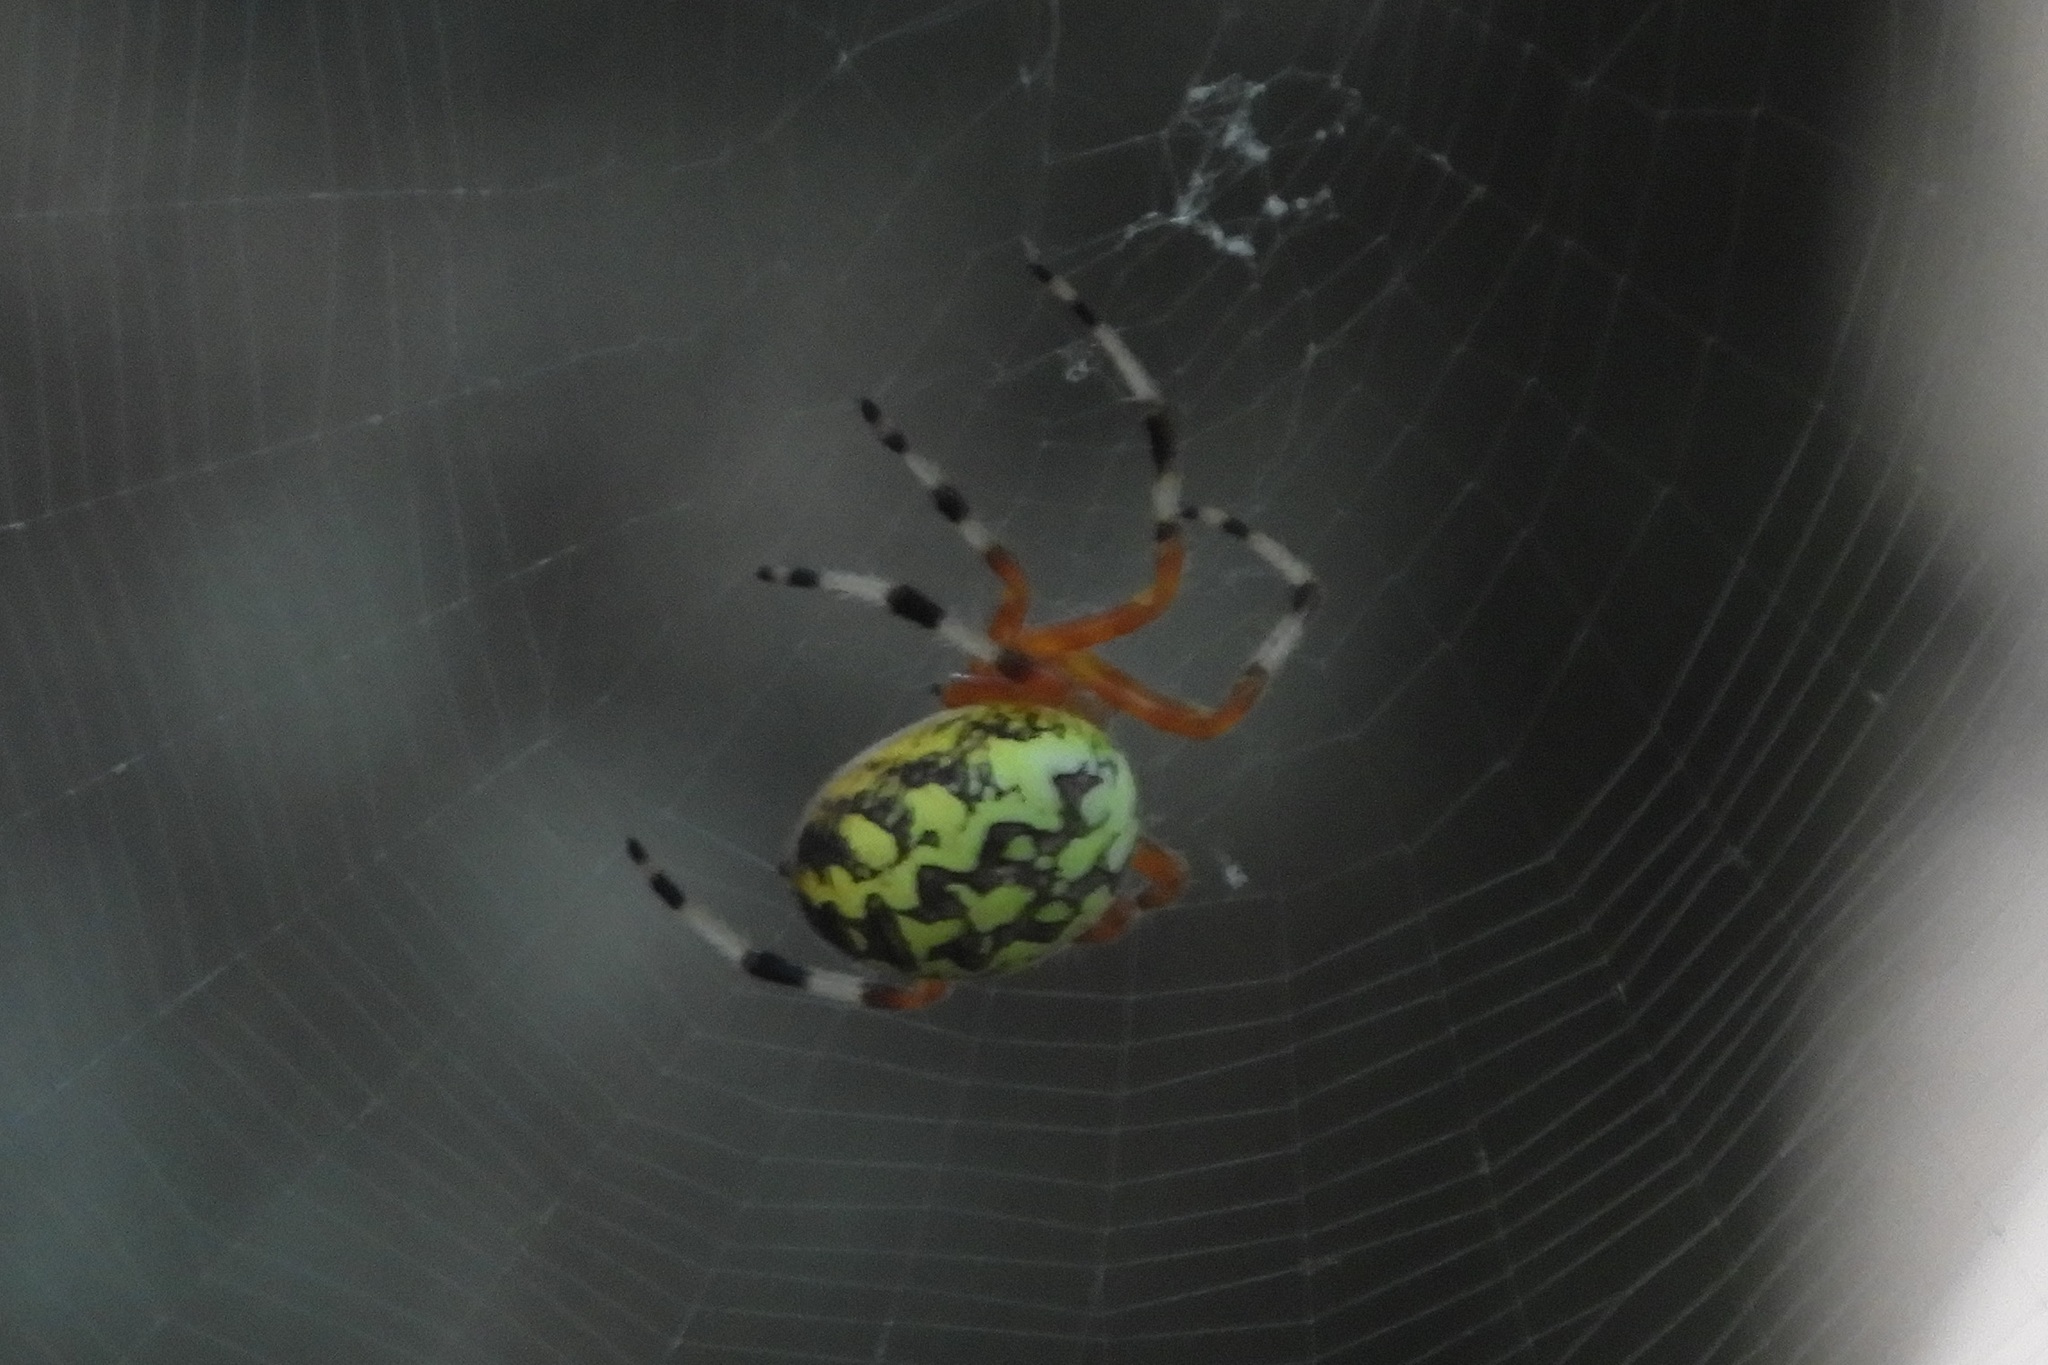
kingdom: Animalia
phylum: Arthropoda
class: Arachnida
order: Araneae
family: Araneidae
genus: Araneus
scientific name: Araneus marmoreus
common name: Marbled orbweaver
